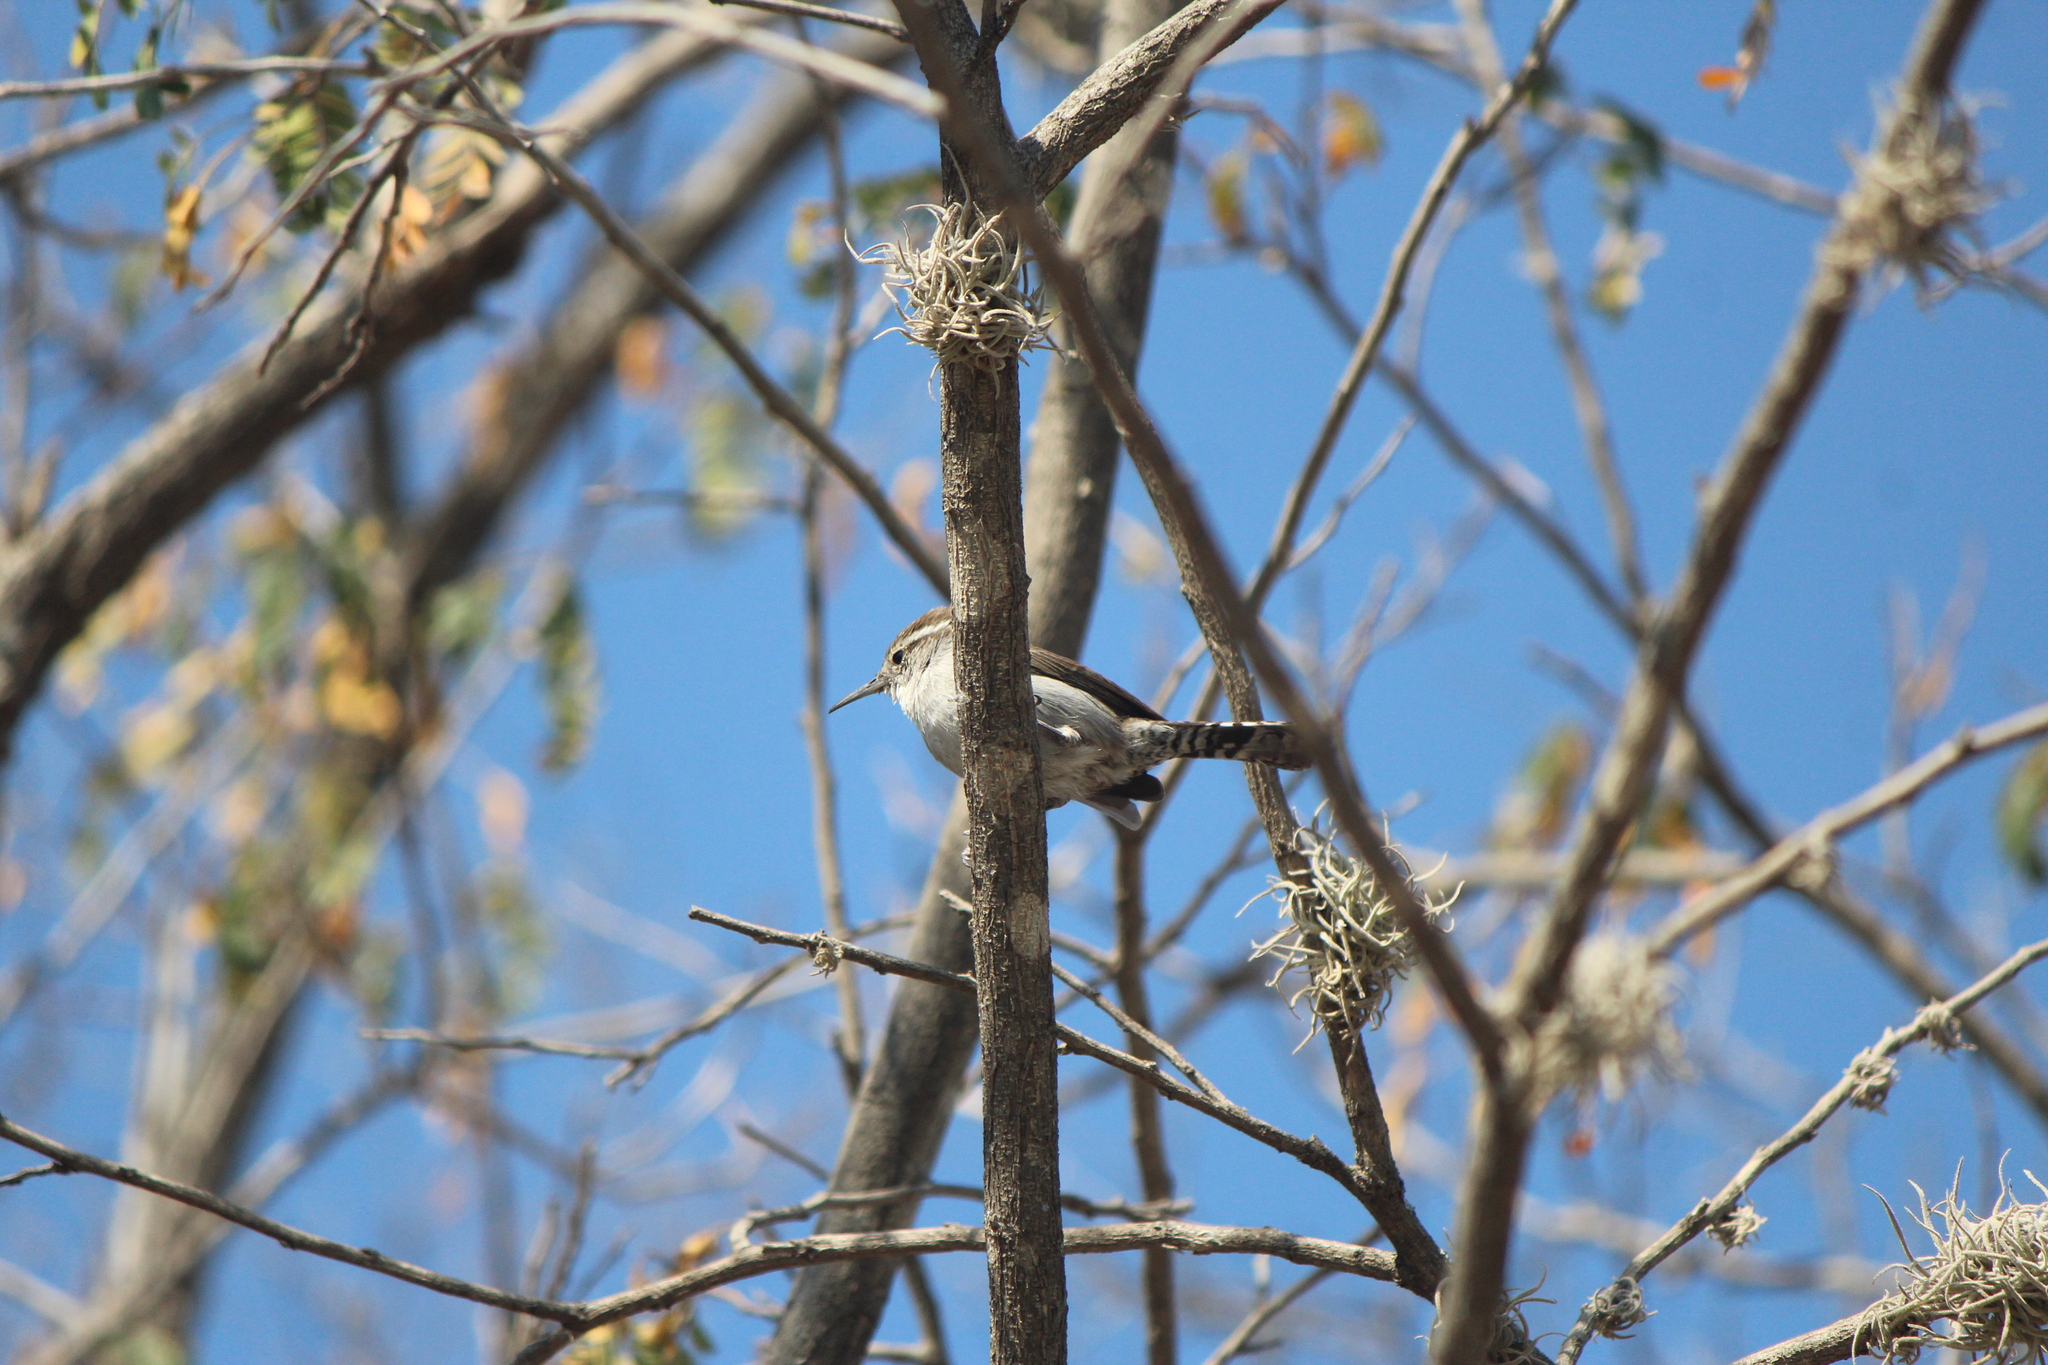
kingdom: Animalia
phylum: Chordata
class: Aves
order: Passeriformes
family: Troglodytidae
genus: Thryomanes
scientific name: Thryomanes bewickii
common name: Bewick's wren
